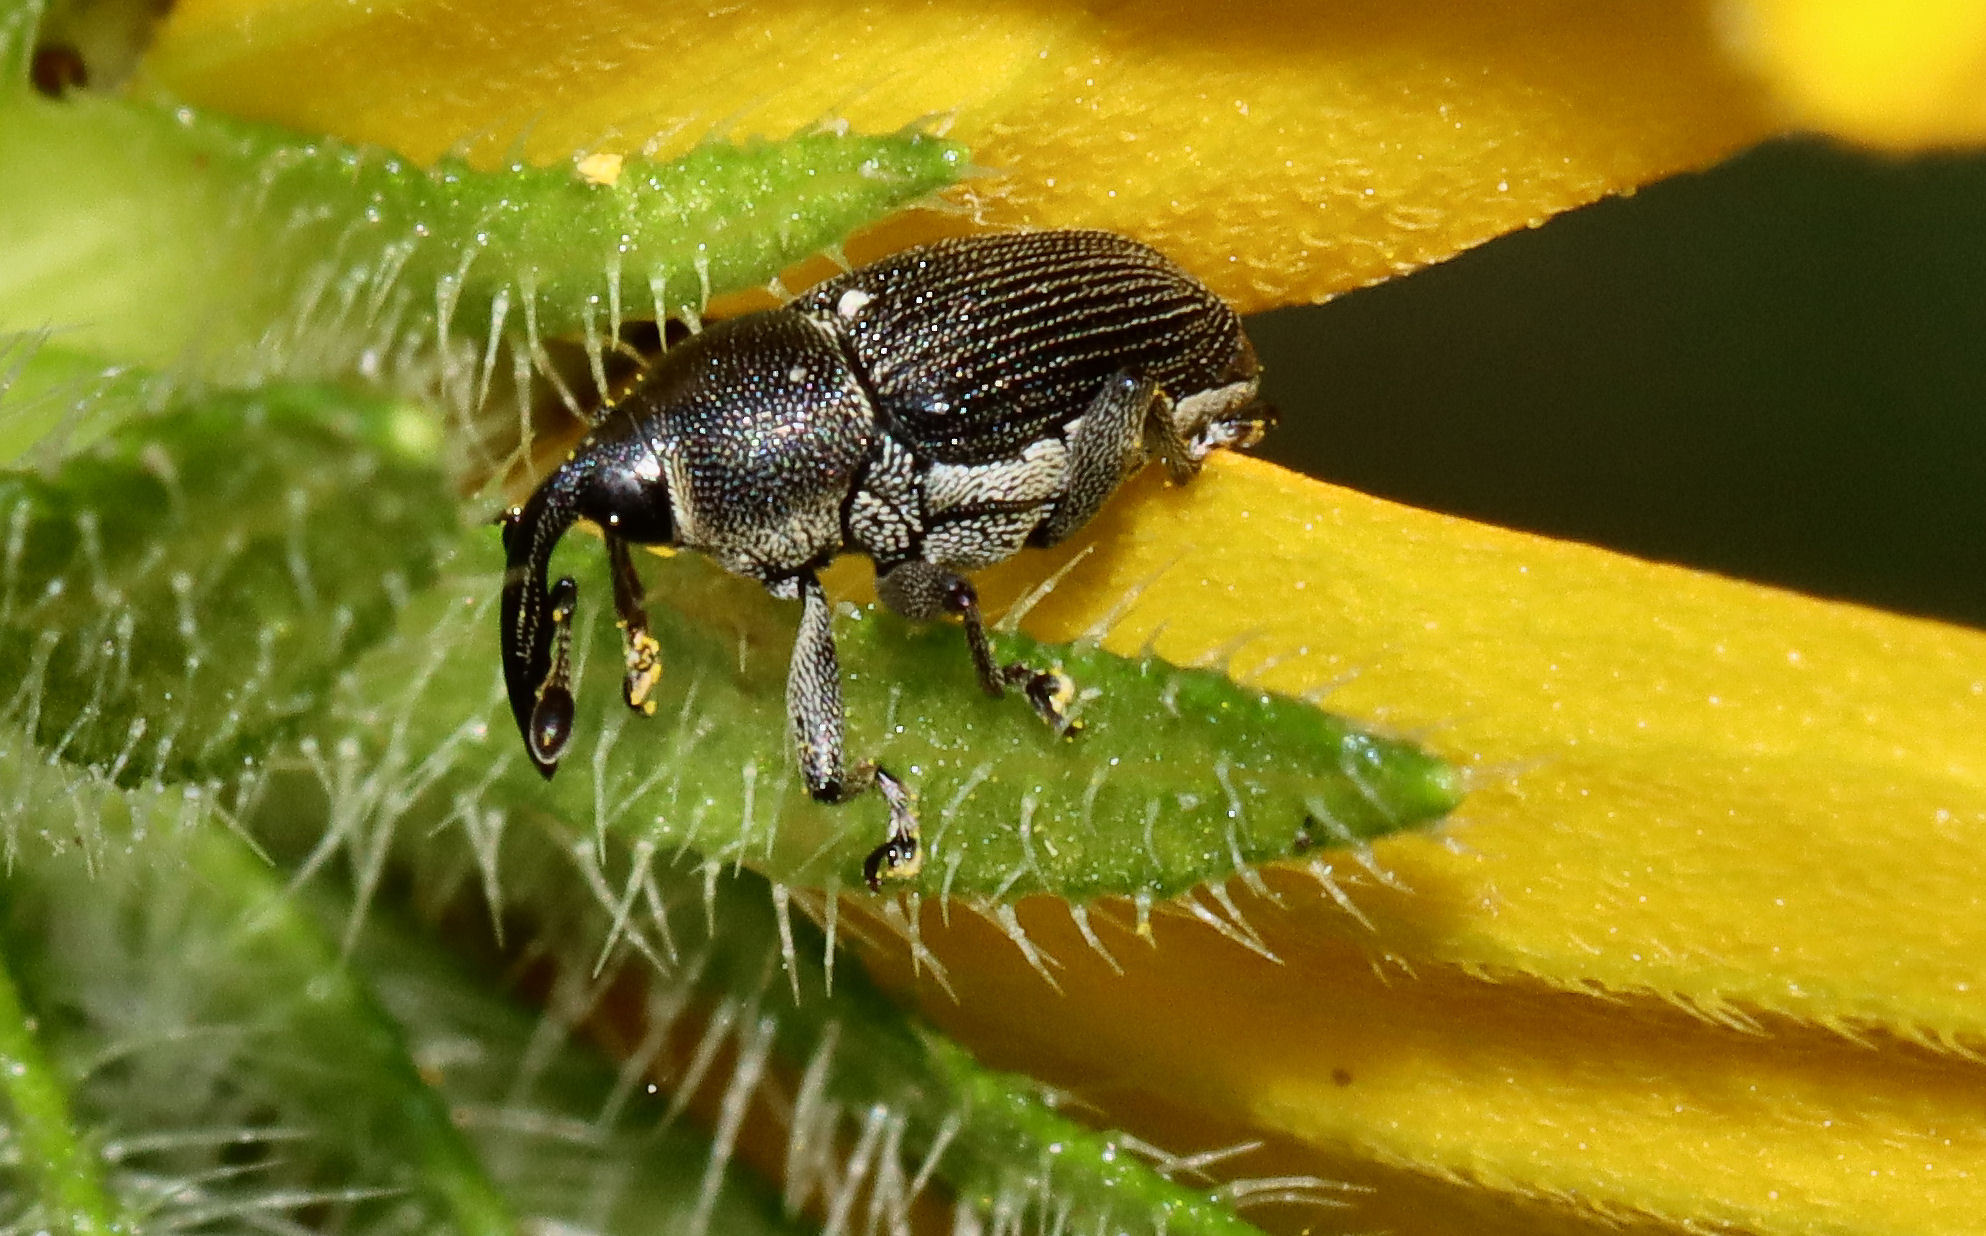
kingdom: Animalia
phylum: Arthropoda
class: Insecta
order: Coleoptera
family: Curculionidae
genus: Odontocorynus
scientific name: Odontocorynus umbellae
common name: Daisy flower weevil
